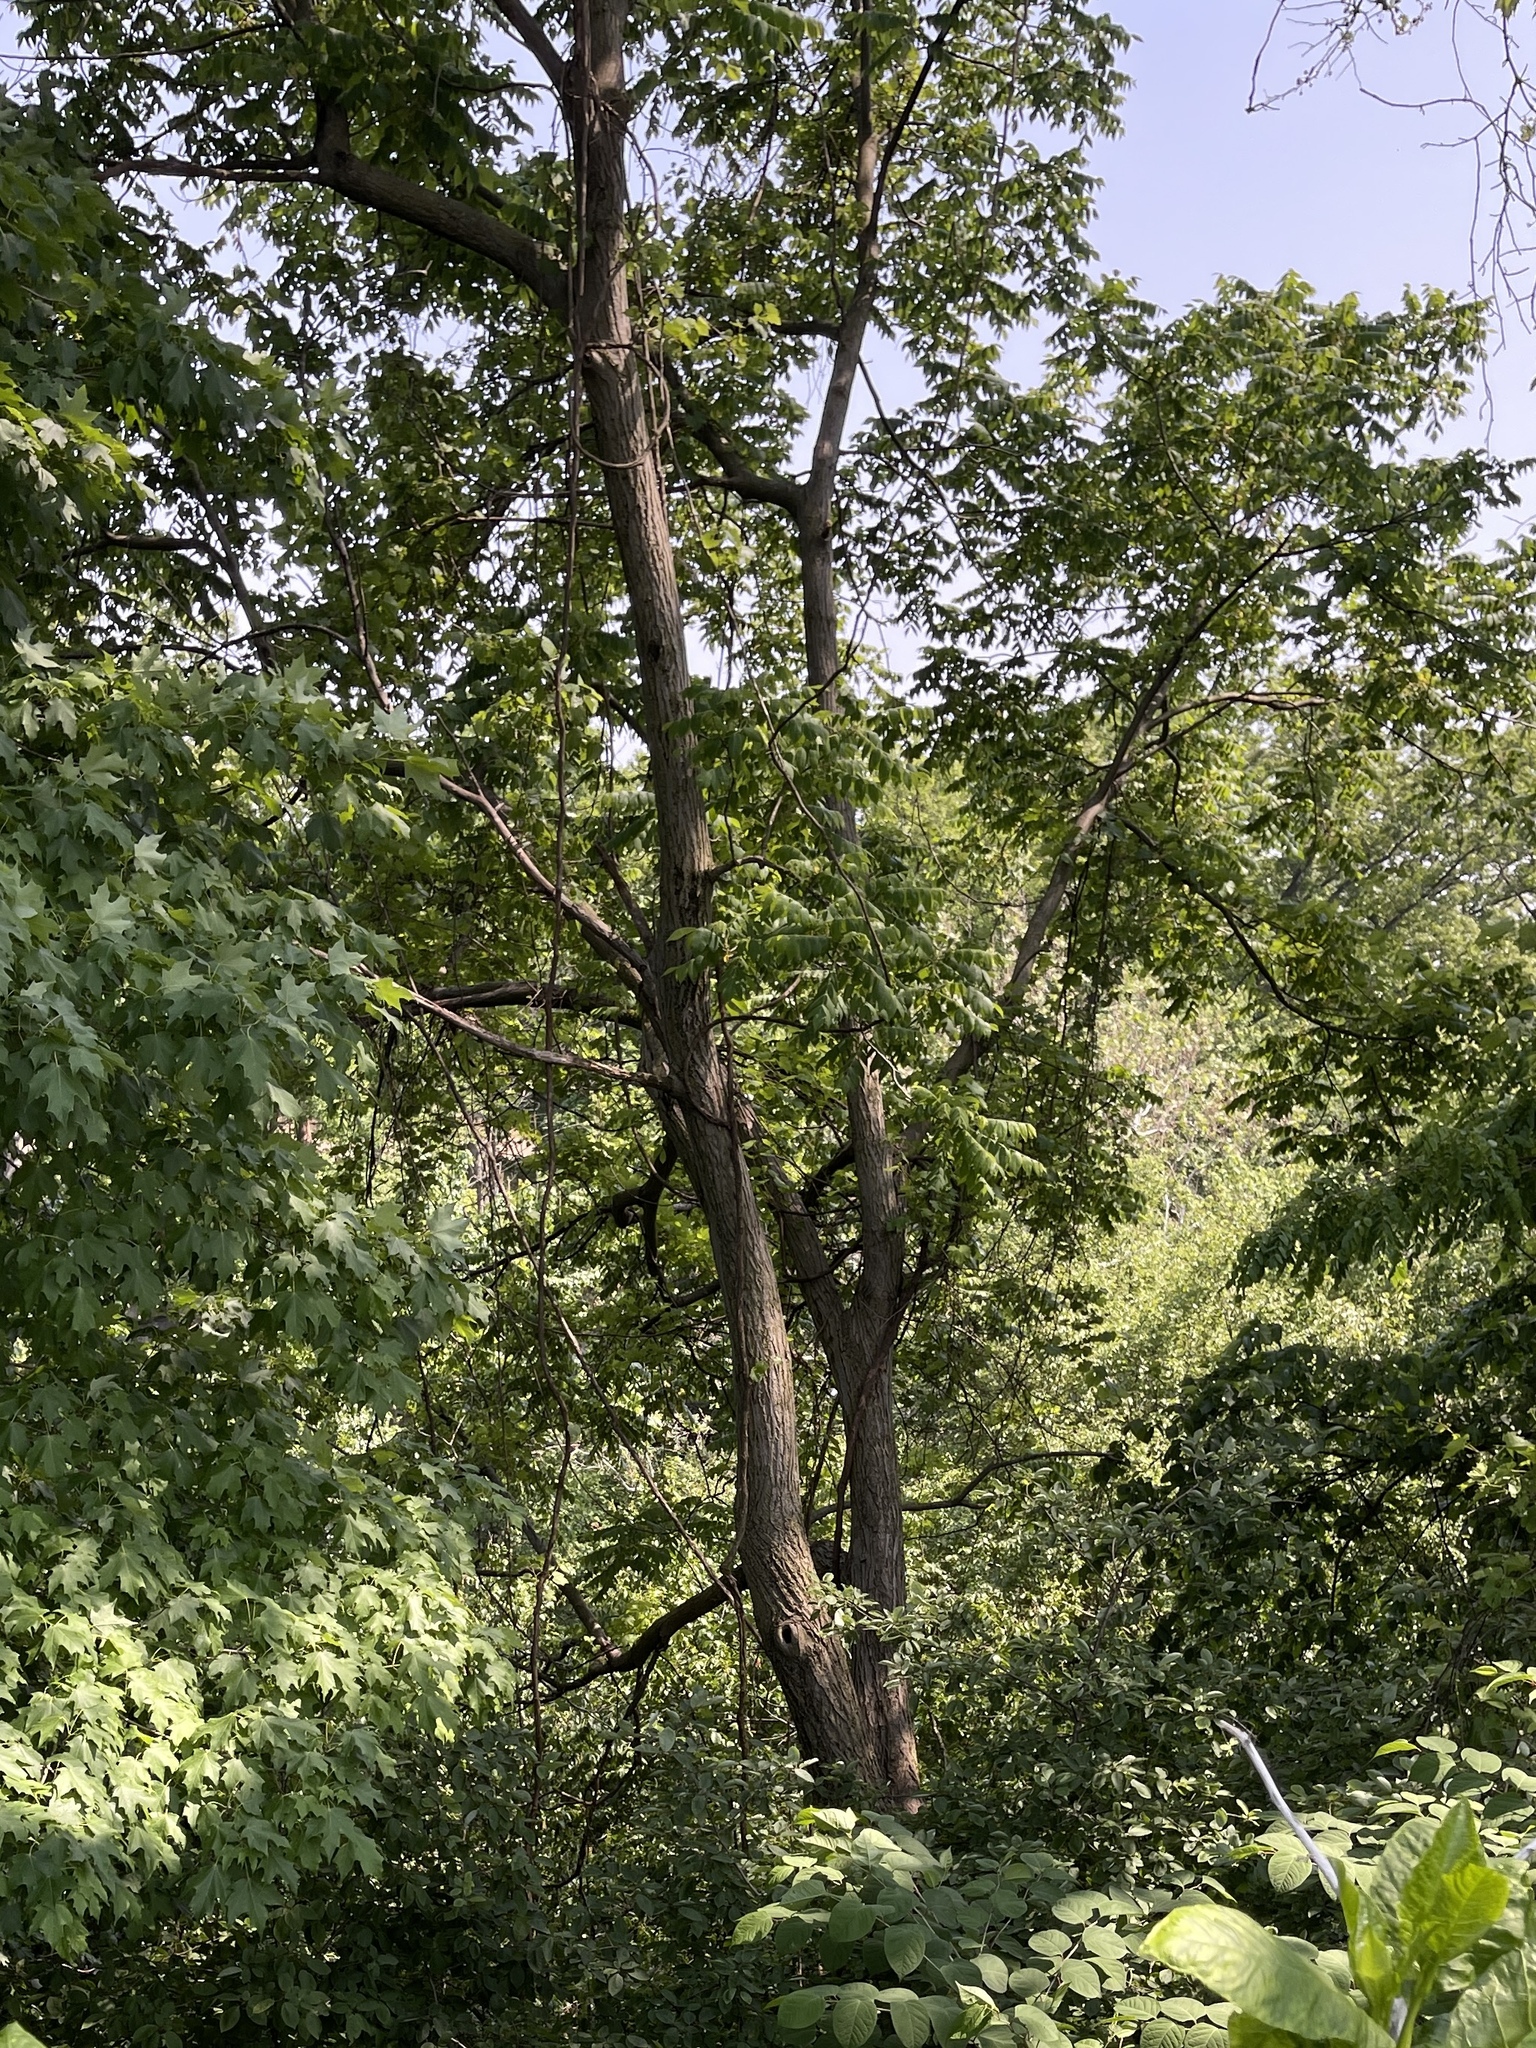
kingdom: Plantae
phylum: Tracheophyta
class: Magnoliopsida
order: Fagales
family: Juglandaceae
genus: Juglans
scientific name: Juglans cinerea
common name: Butternut
